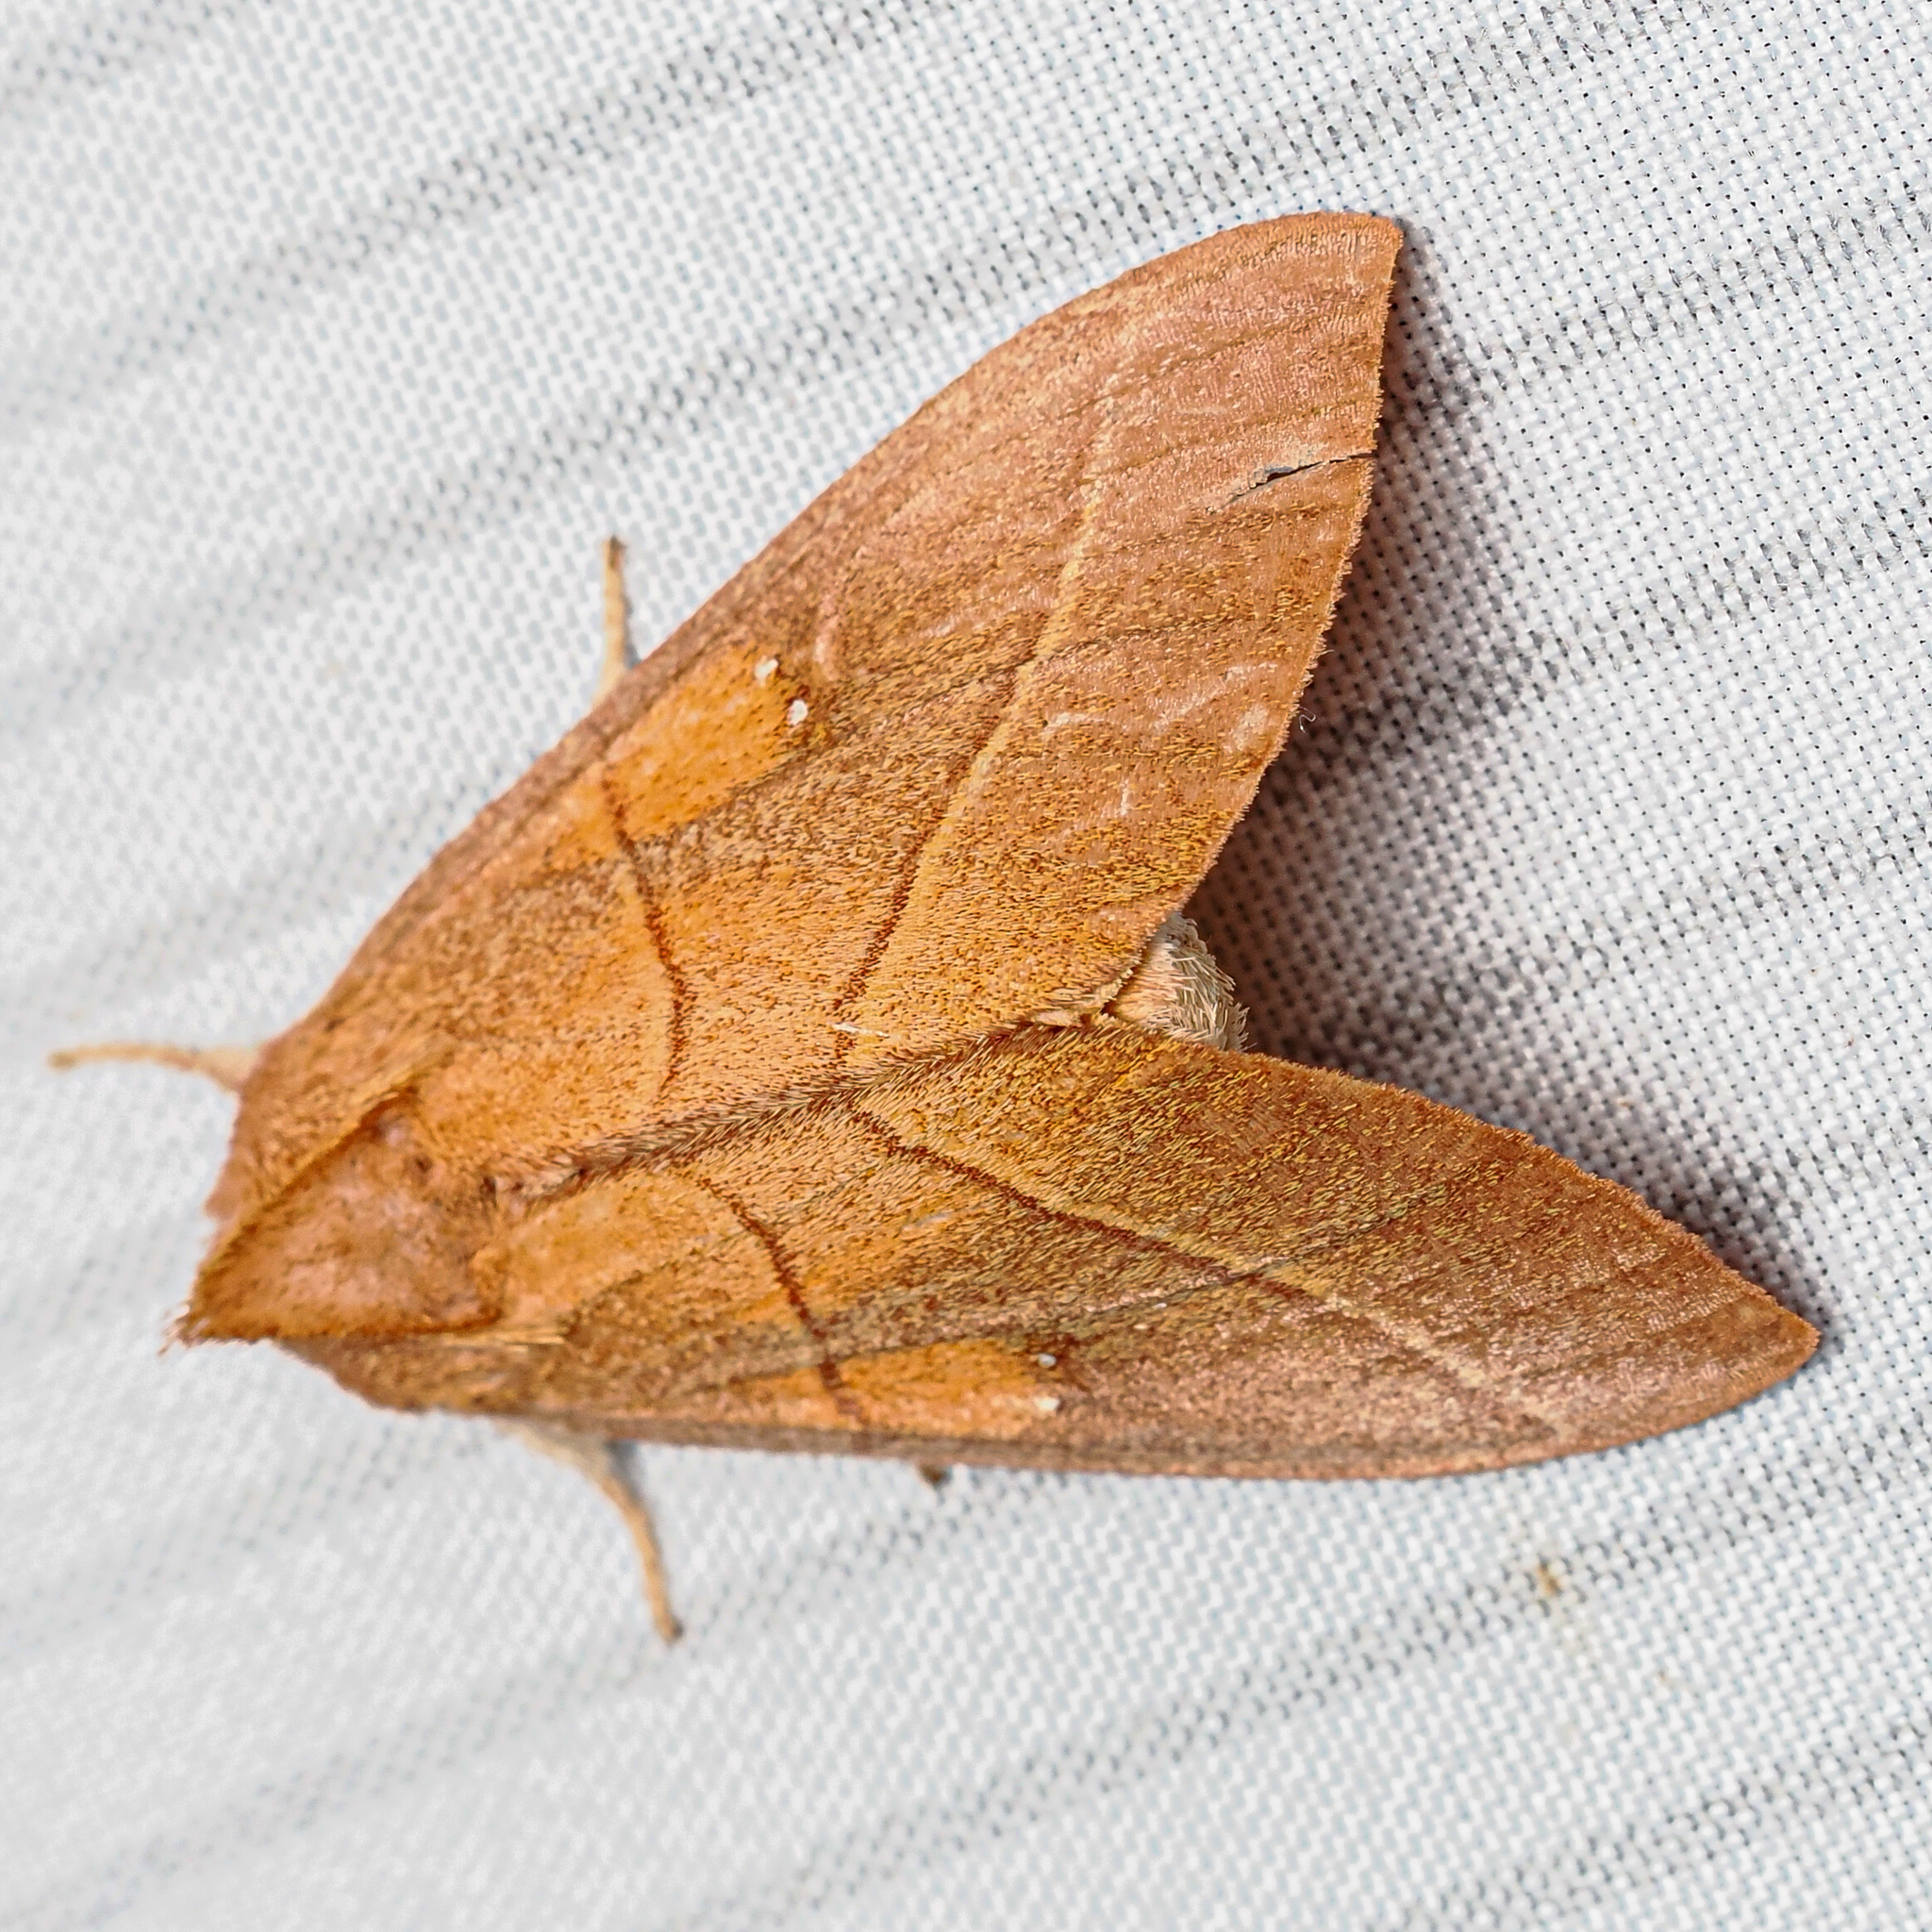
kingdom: Animalia
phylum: Arthropoda
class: Insecta
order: Lepidoptera
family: Notodontidae
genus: Nadata
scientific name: Nadata gibbosa
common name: White-dotted prominent
